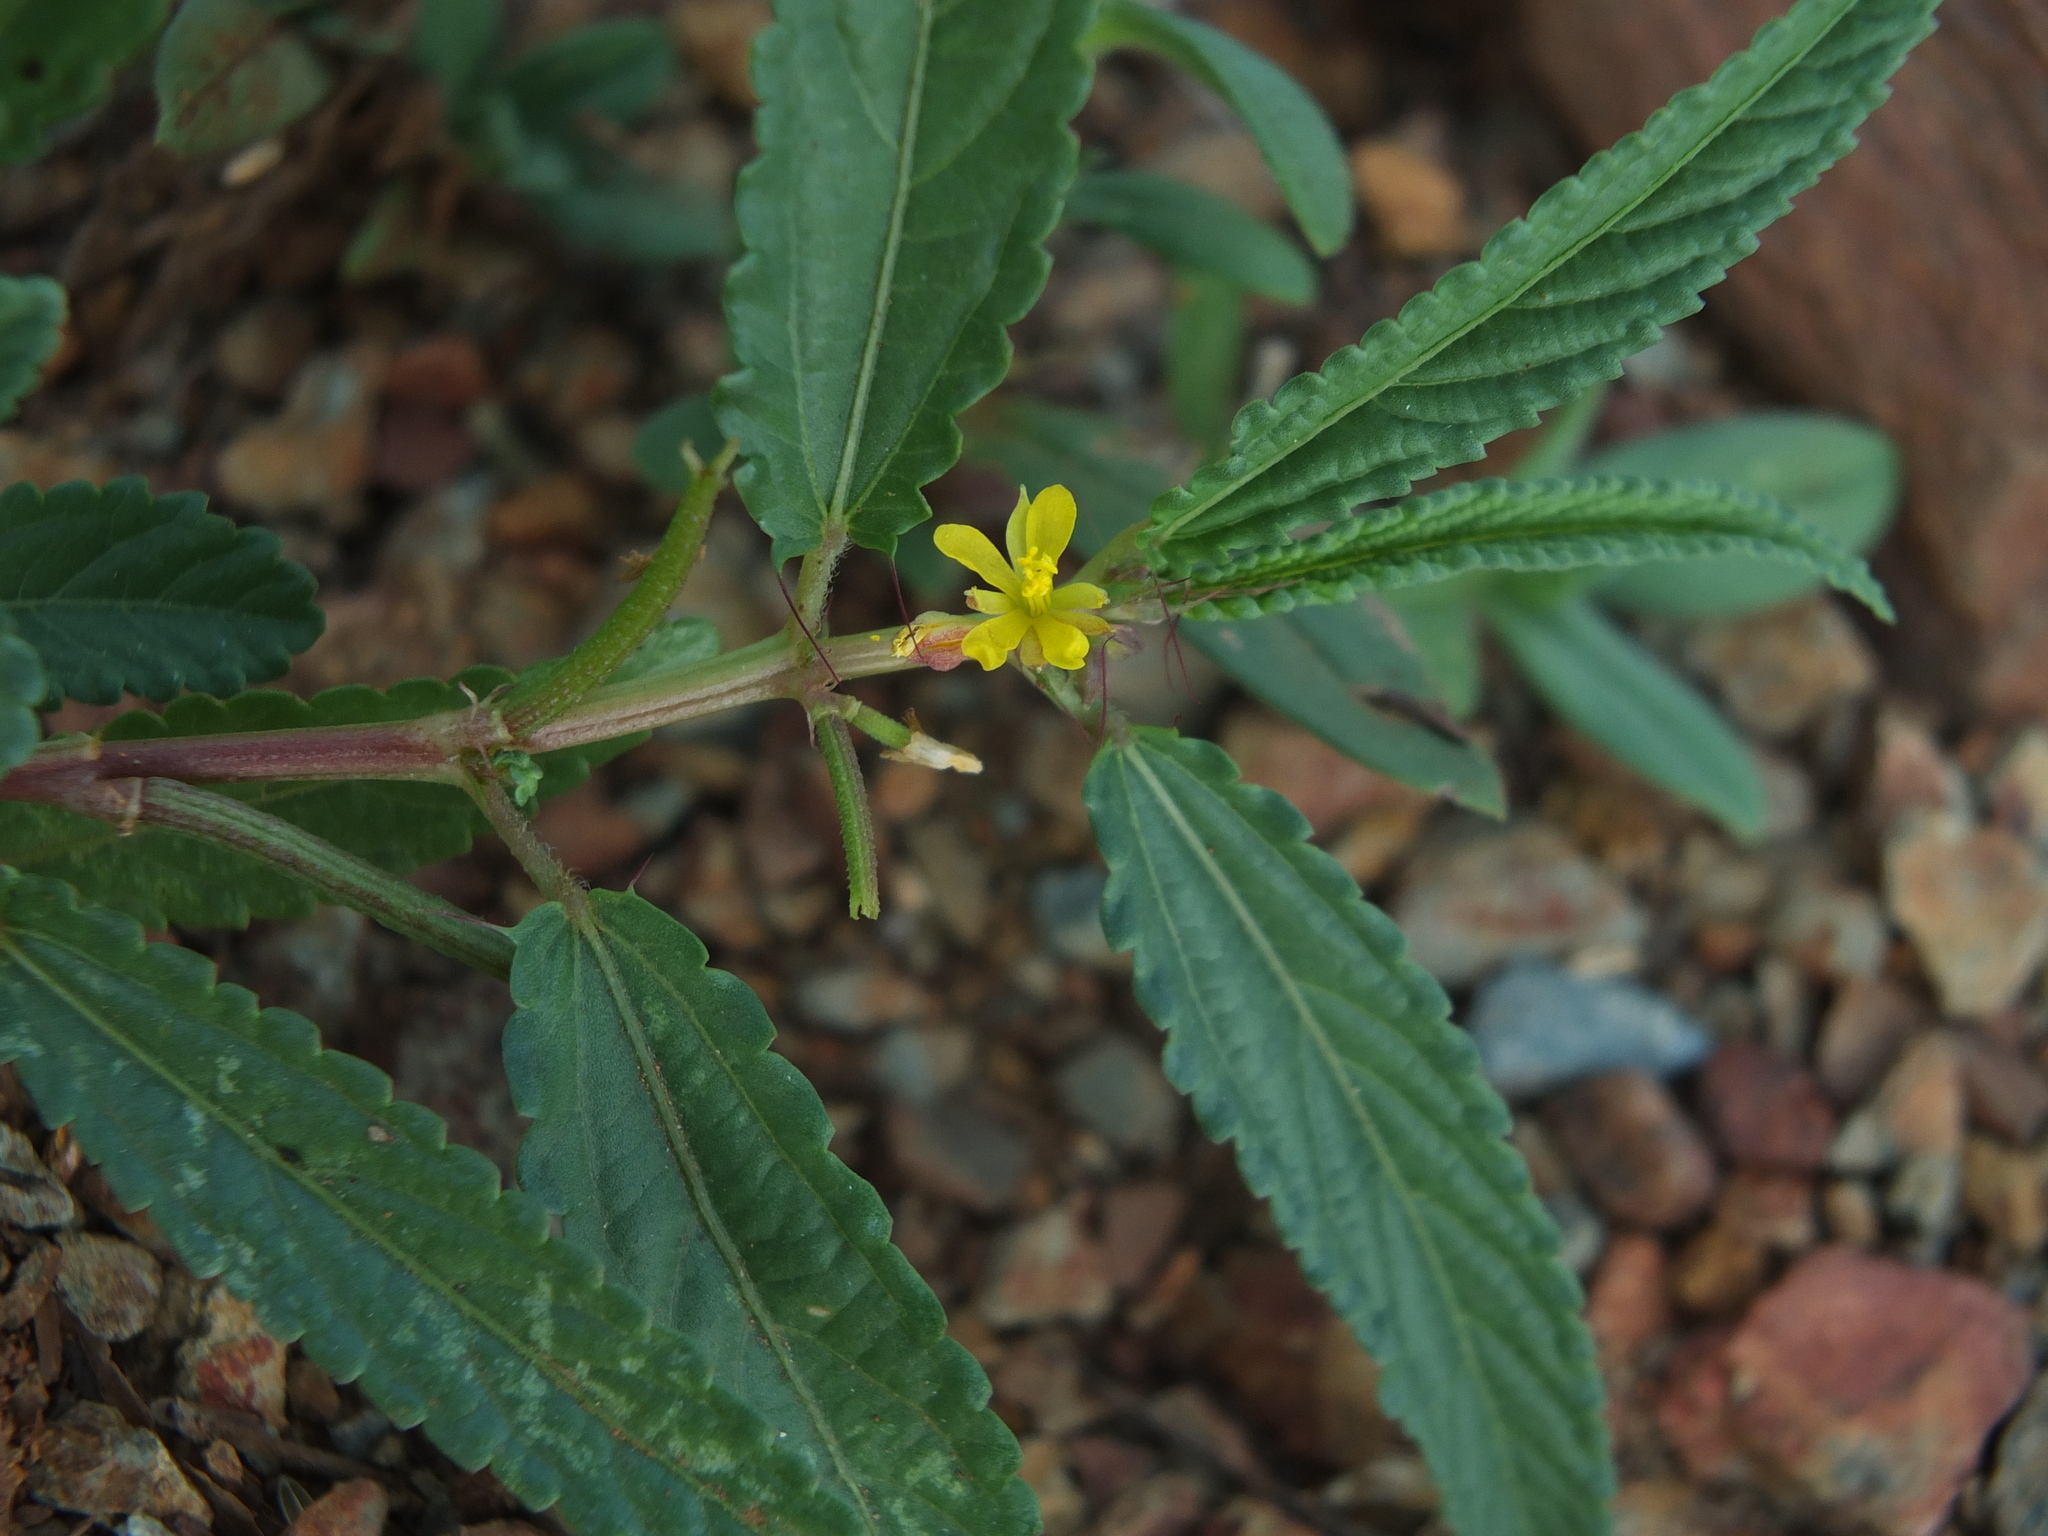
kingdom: Plantae
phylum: Tracheophyta
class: Magnoliopsida
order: Malvales
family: Malvaceae
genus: Corchorus
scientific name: Corchorus tridens
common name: Wild jute
